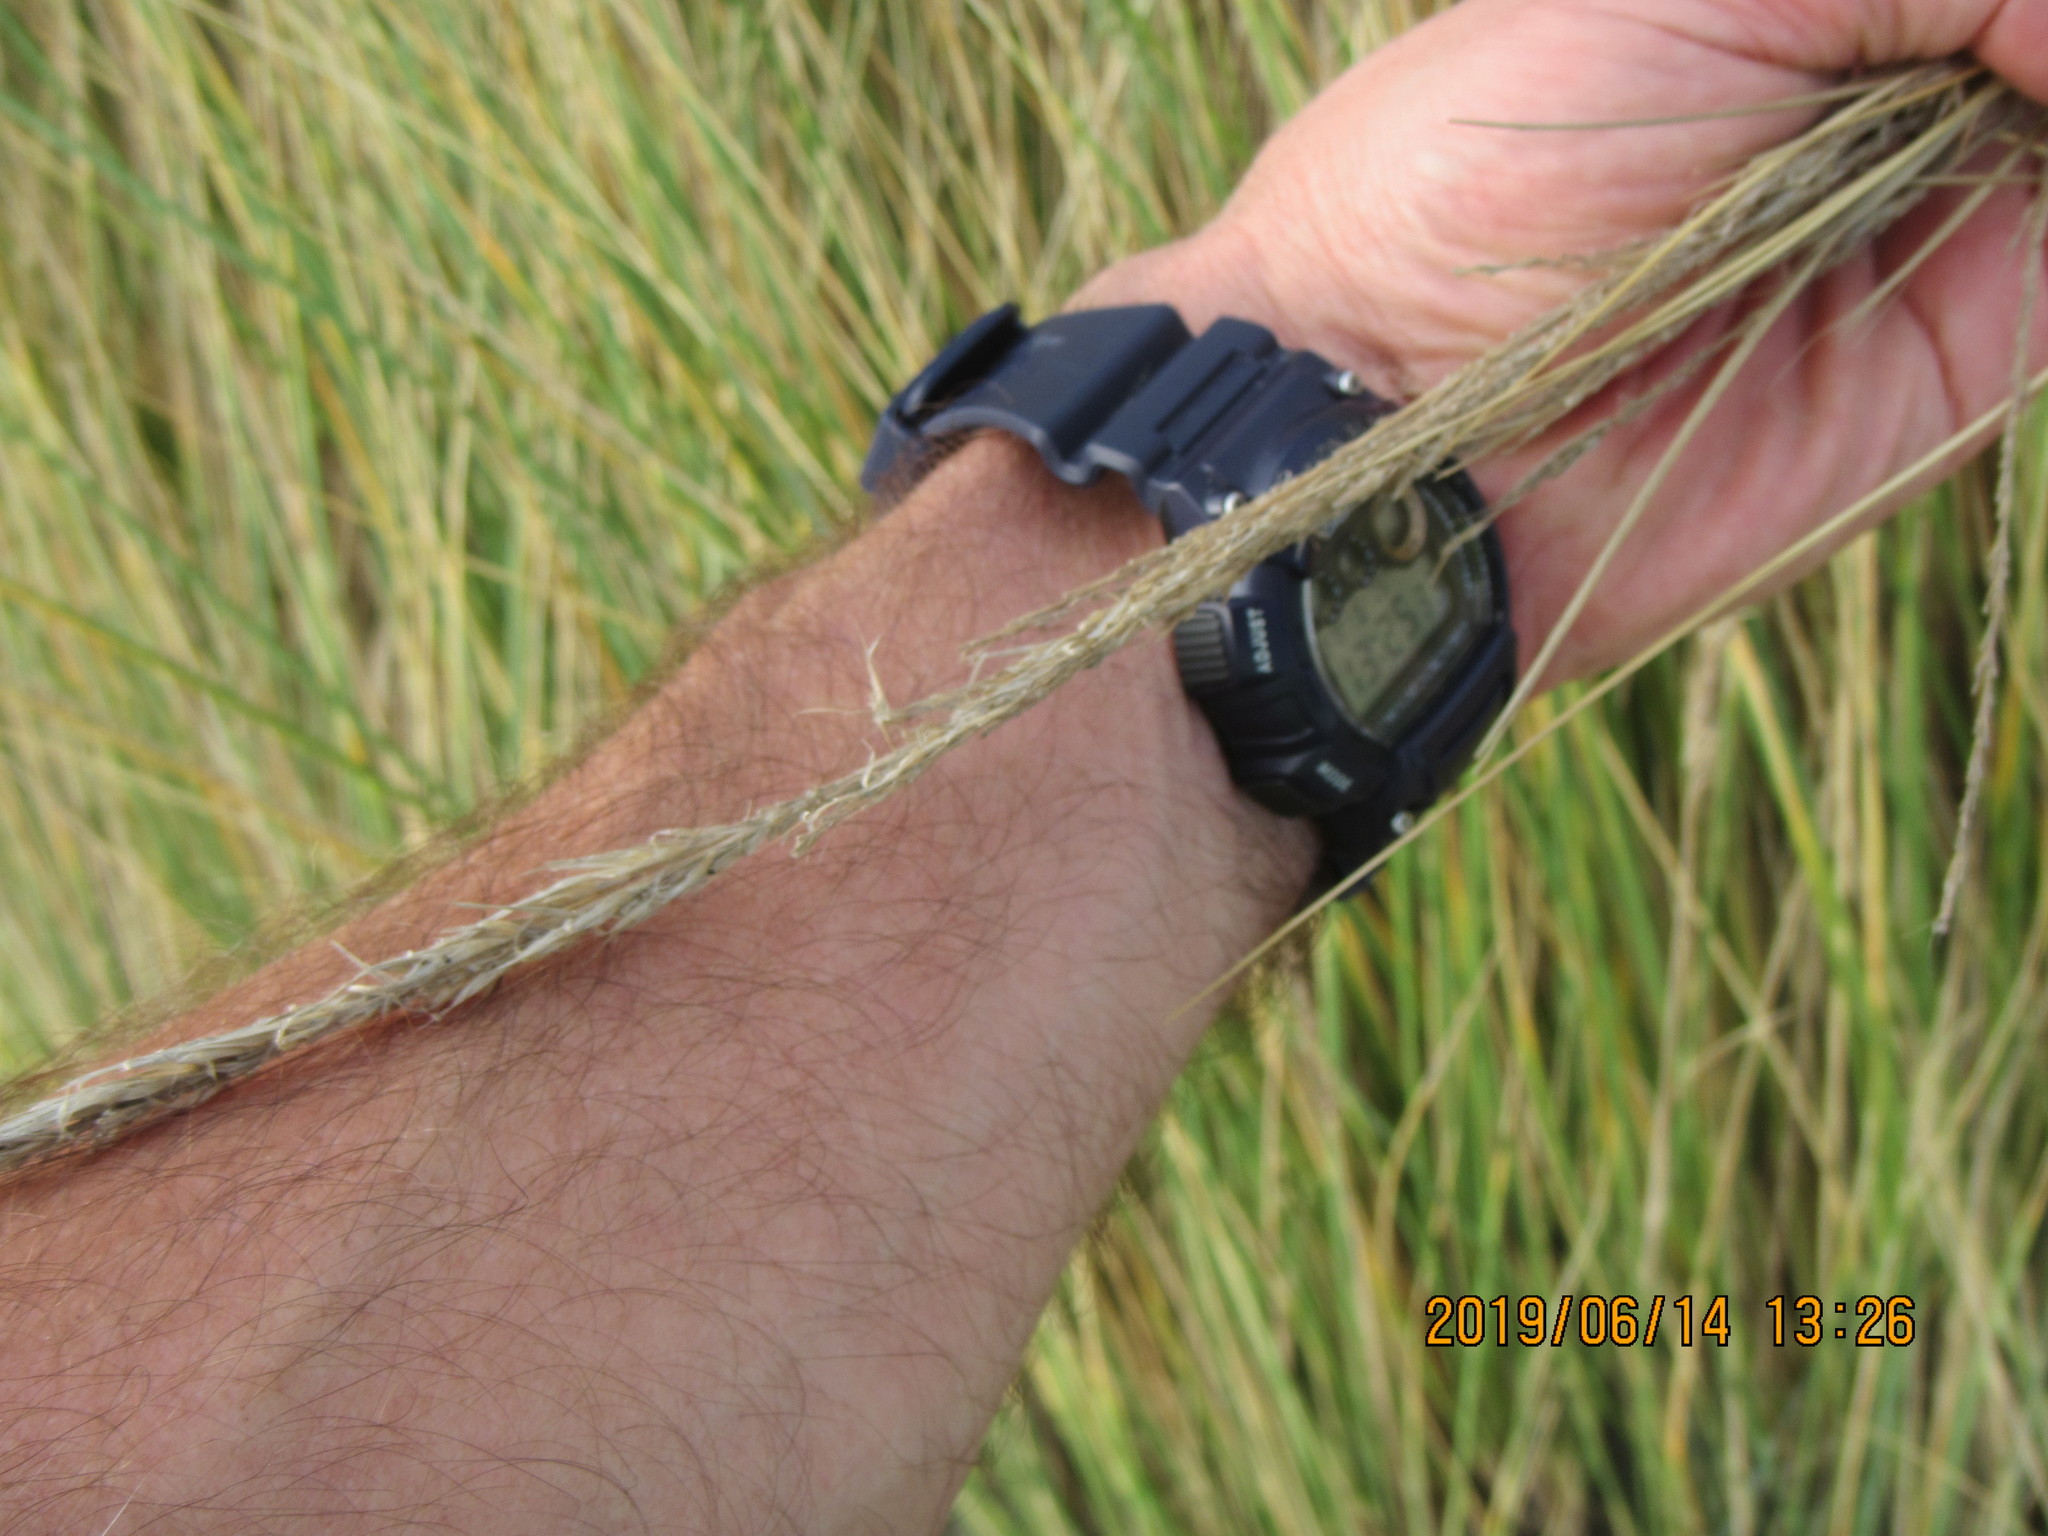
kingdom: Plantae
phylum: Tracheophyta
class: Liliopsida
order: Poales
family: Poaceae
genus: Calamagrostis
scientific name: Calamagrostis arenaria
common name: European beachgrass
